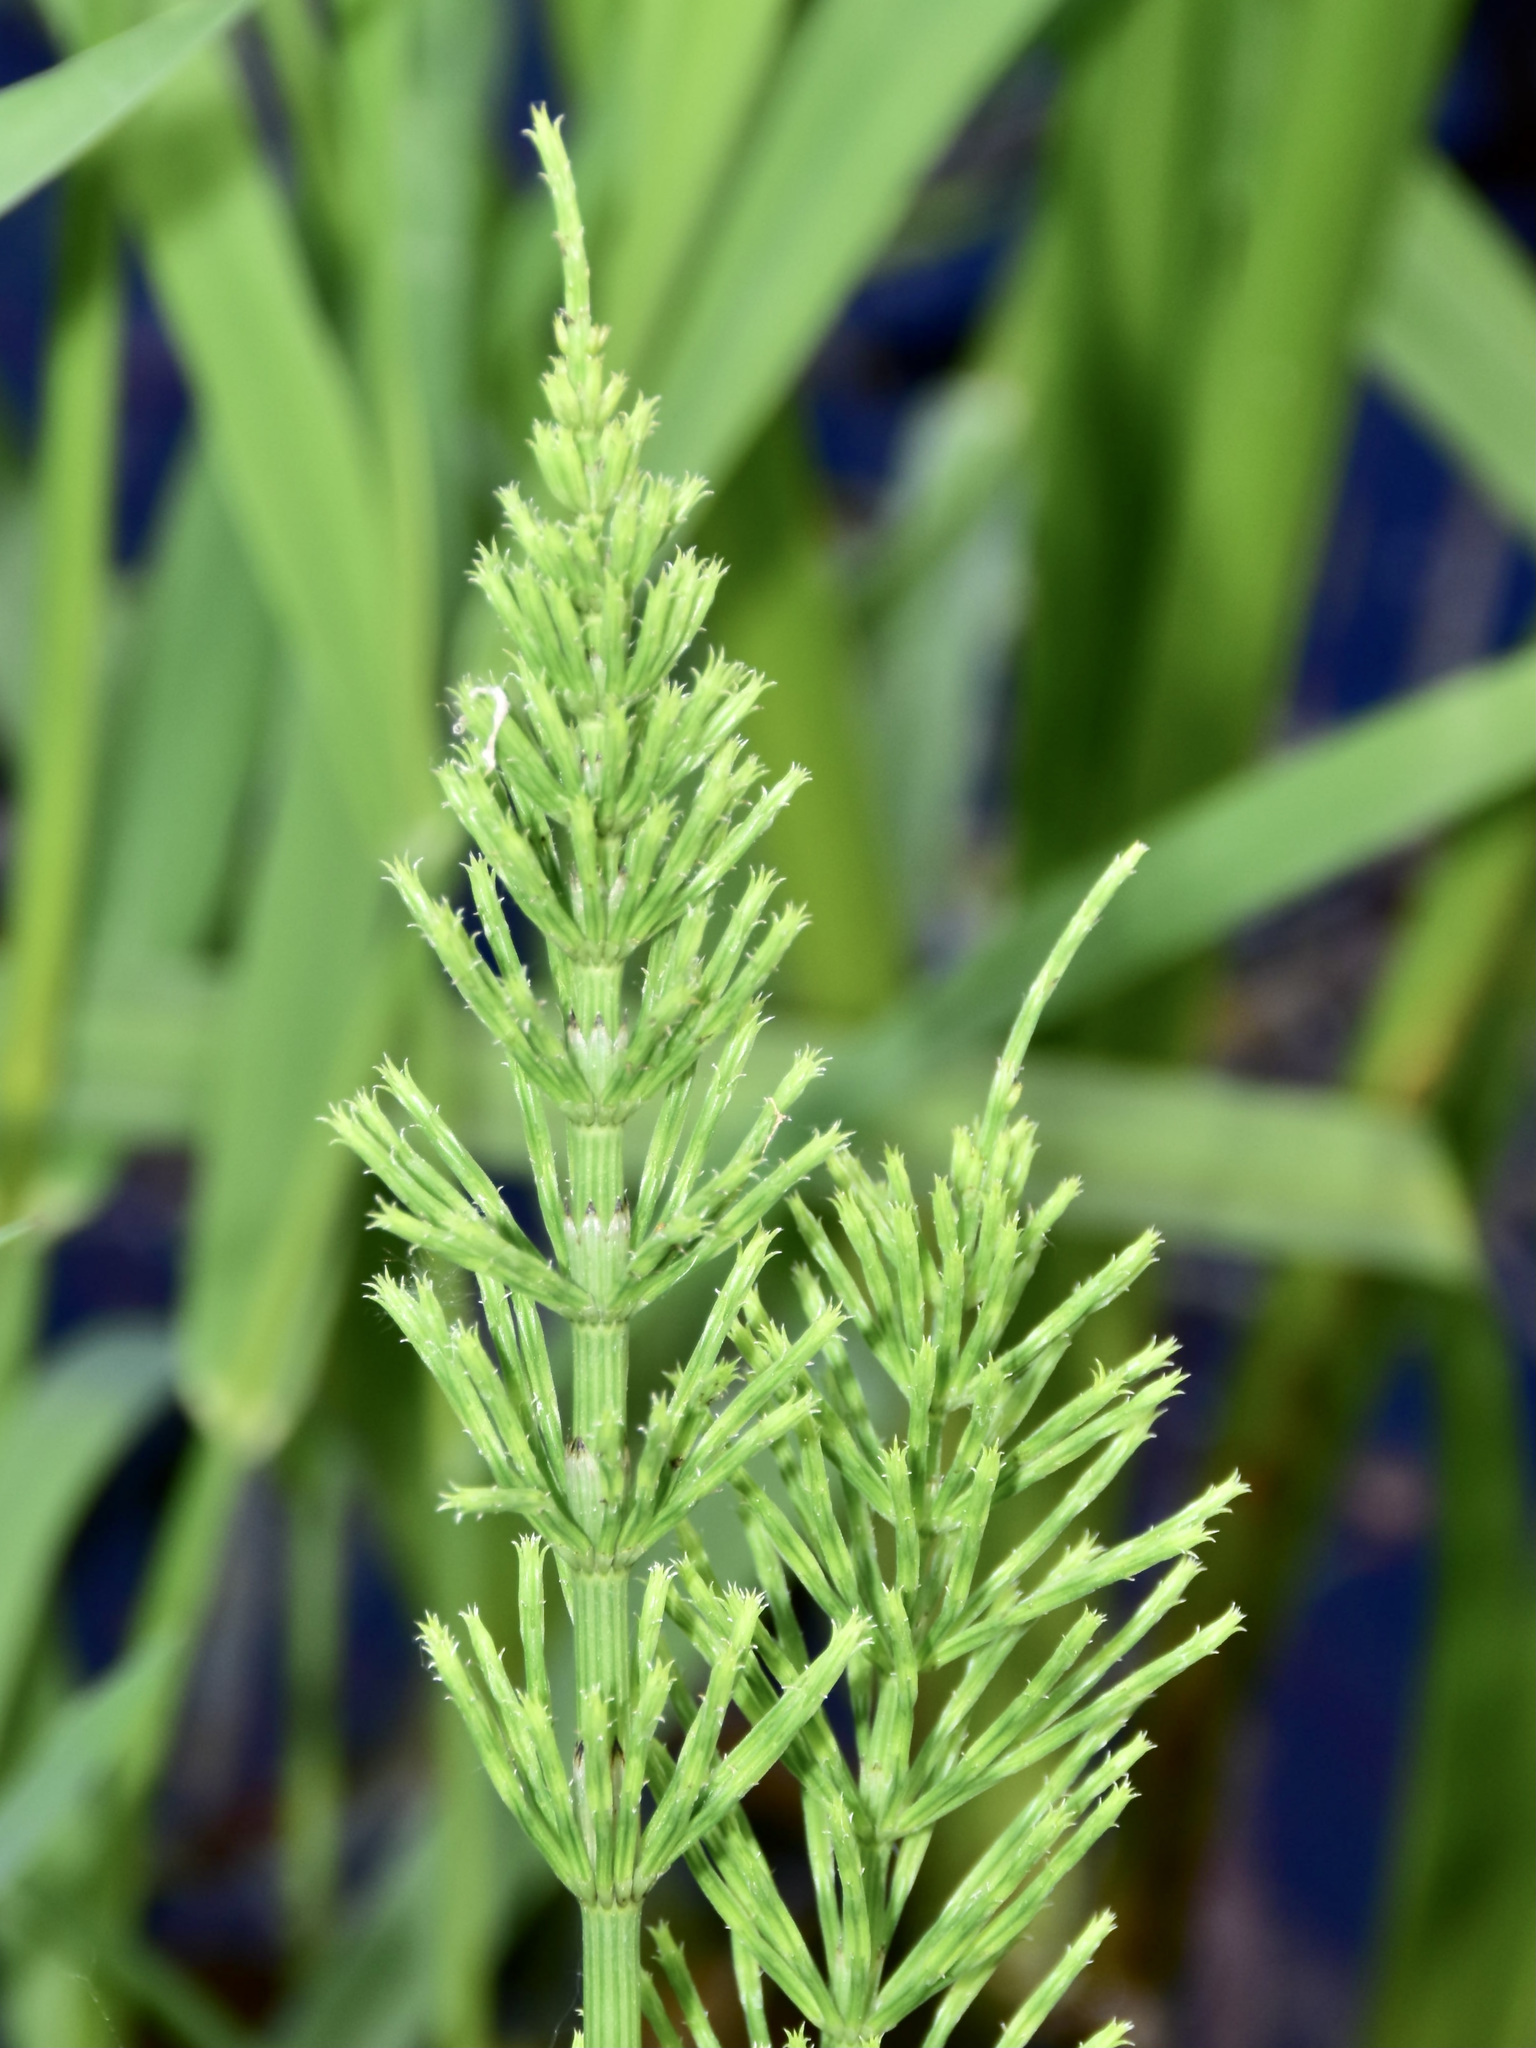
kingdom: Plantae
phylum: Tracheophyta
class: Polypodiopsida
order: Equisetales
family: Equisetaceae
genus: Equisetum
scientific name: Equisetum arvense
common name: Field horsetail
